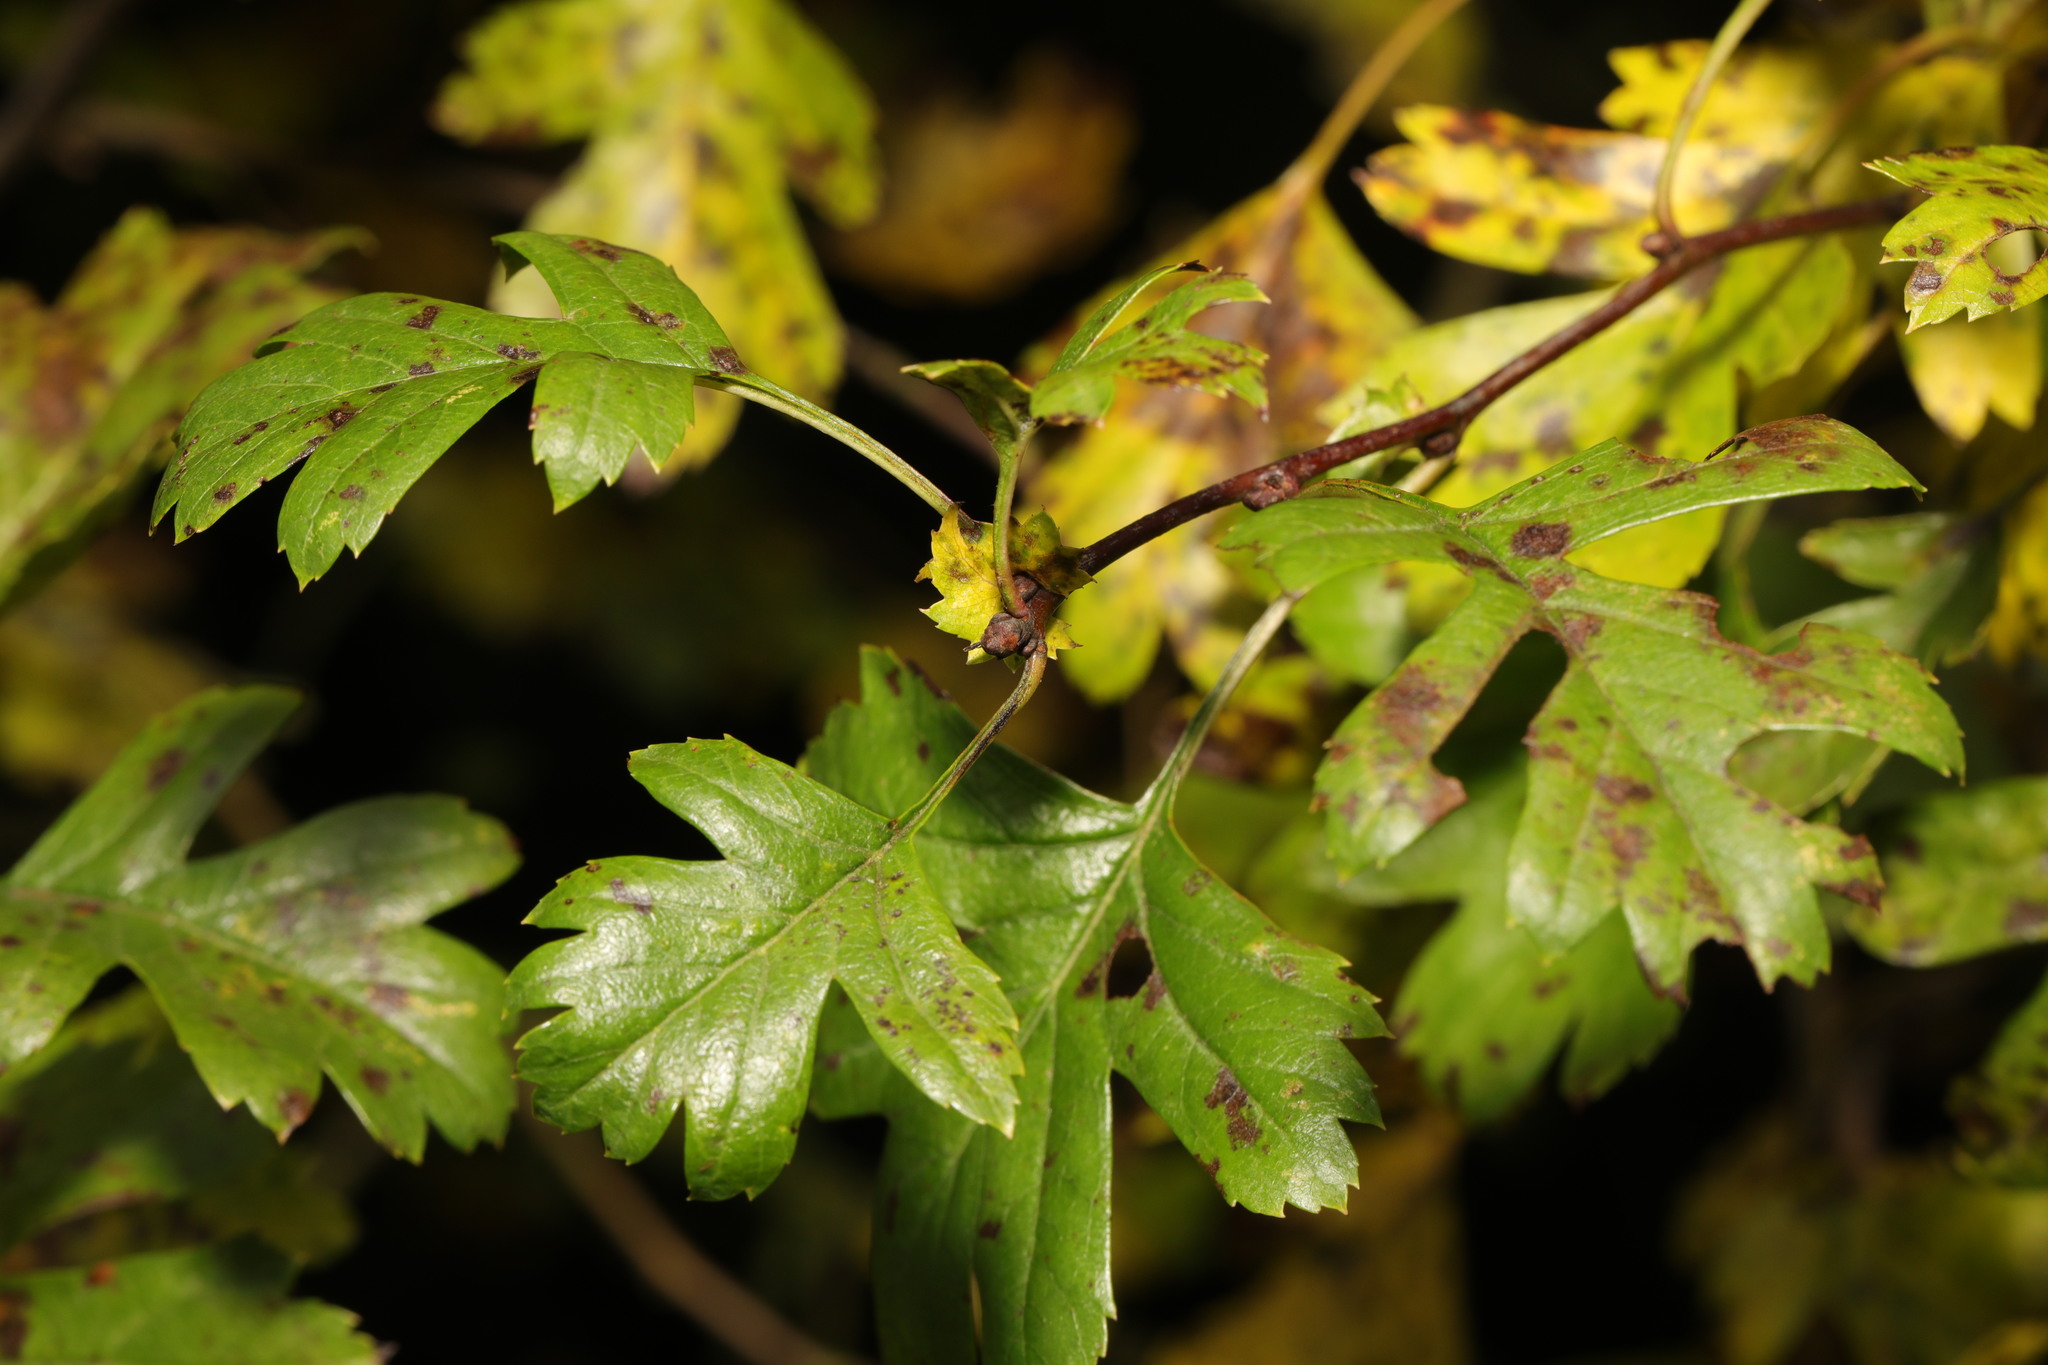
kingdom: Plantae
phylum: Tracheophyta
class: Magnoliopsida
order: Rosales
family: Rosaceae
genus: Crataegus
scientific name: Crataegus monogyna
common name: Hawthorn
